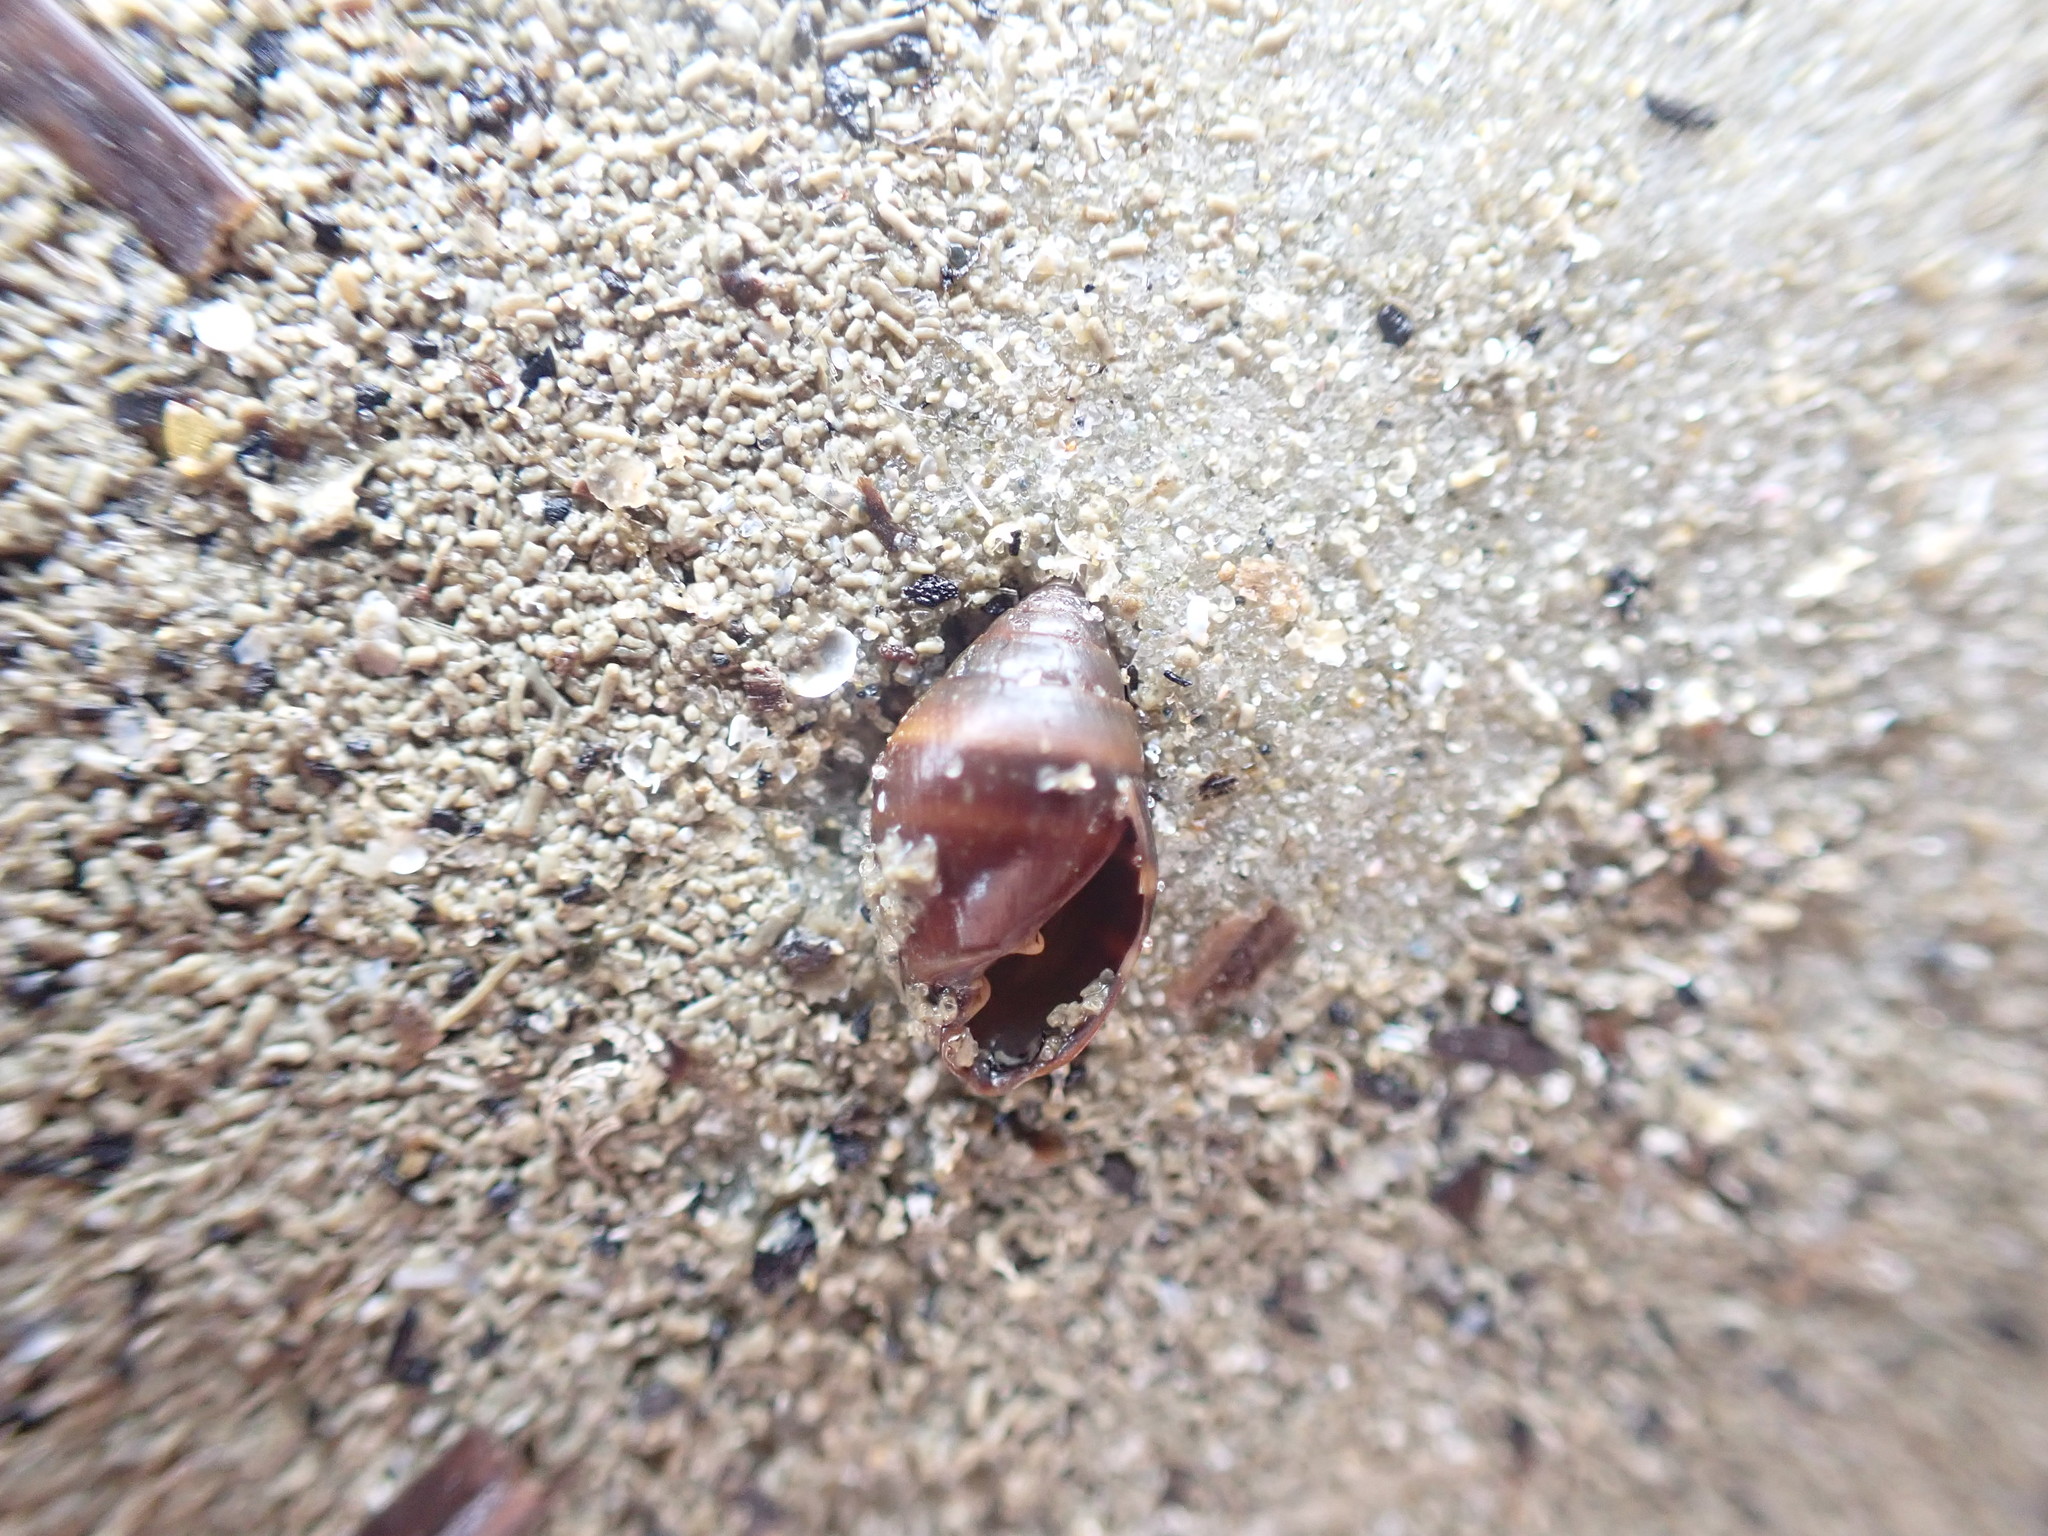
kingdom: Animalia
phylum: Mollusca
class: Gastropoda
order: Ellobiida
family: Ellobiidae
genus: Pleuroloba
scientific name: Pleuroloba costellaris
